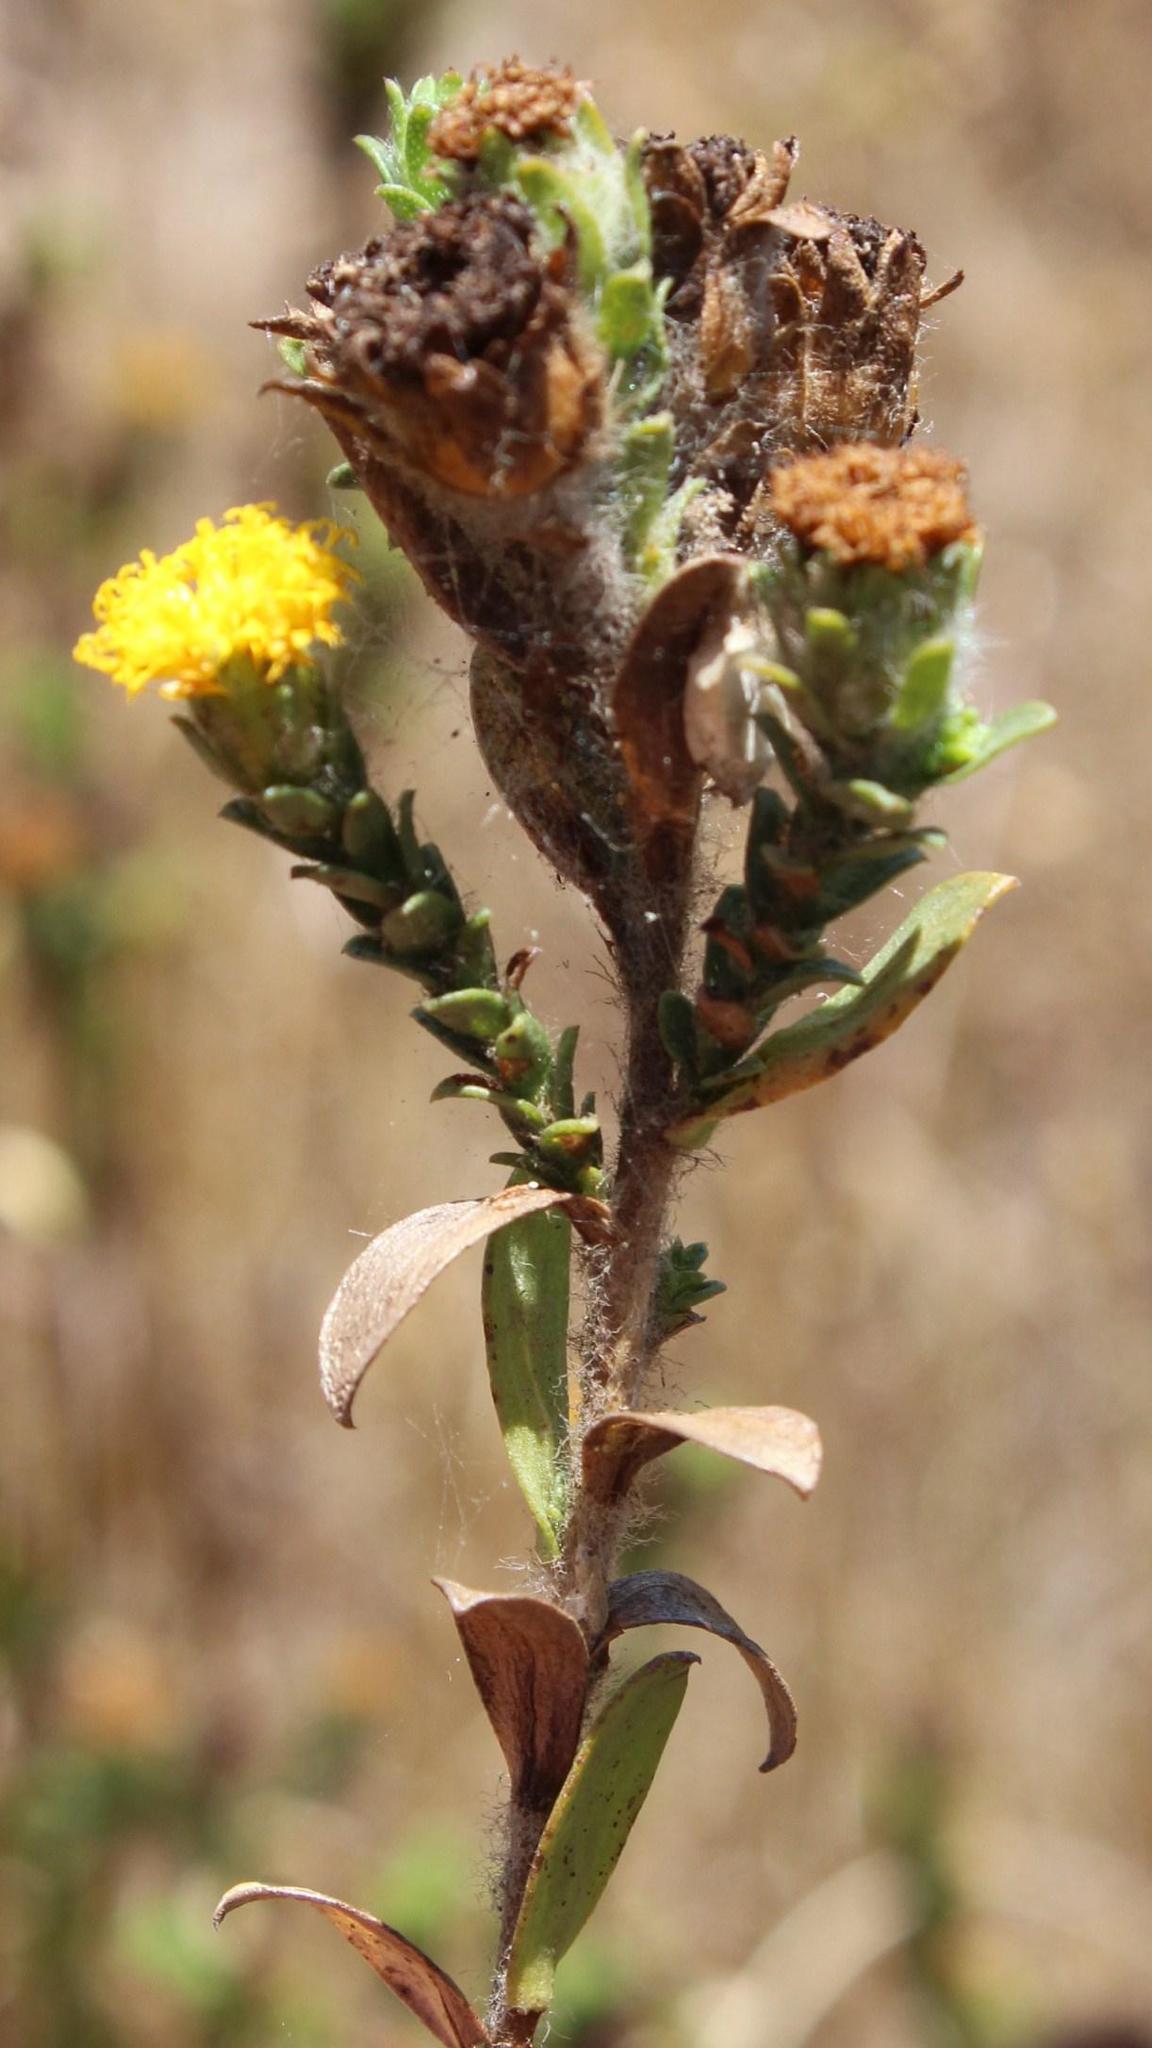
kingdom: Plantae
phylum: Tracheophyta
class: Magnoliopsida
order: Asterales
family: Asteraceae
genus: Athanasia
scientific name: Athanasia capitata
